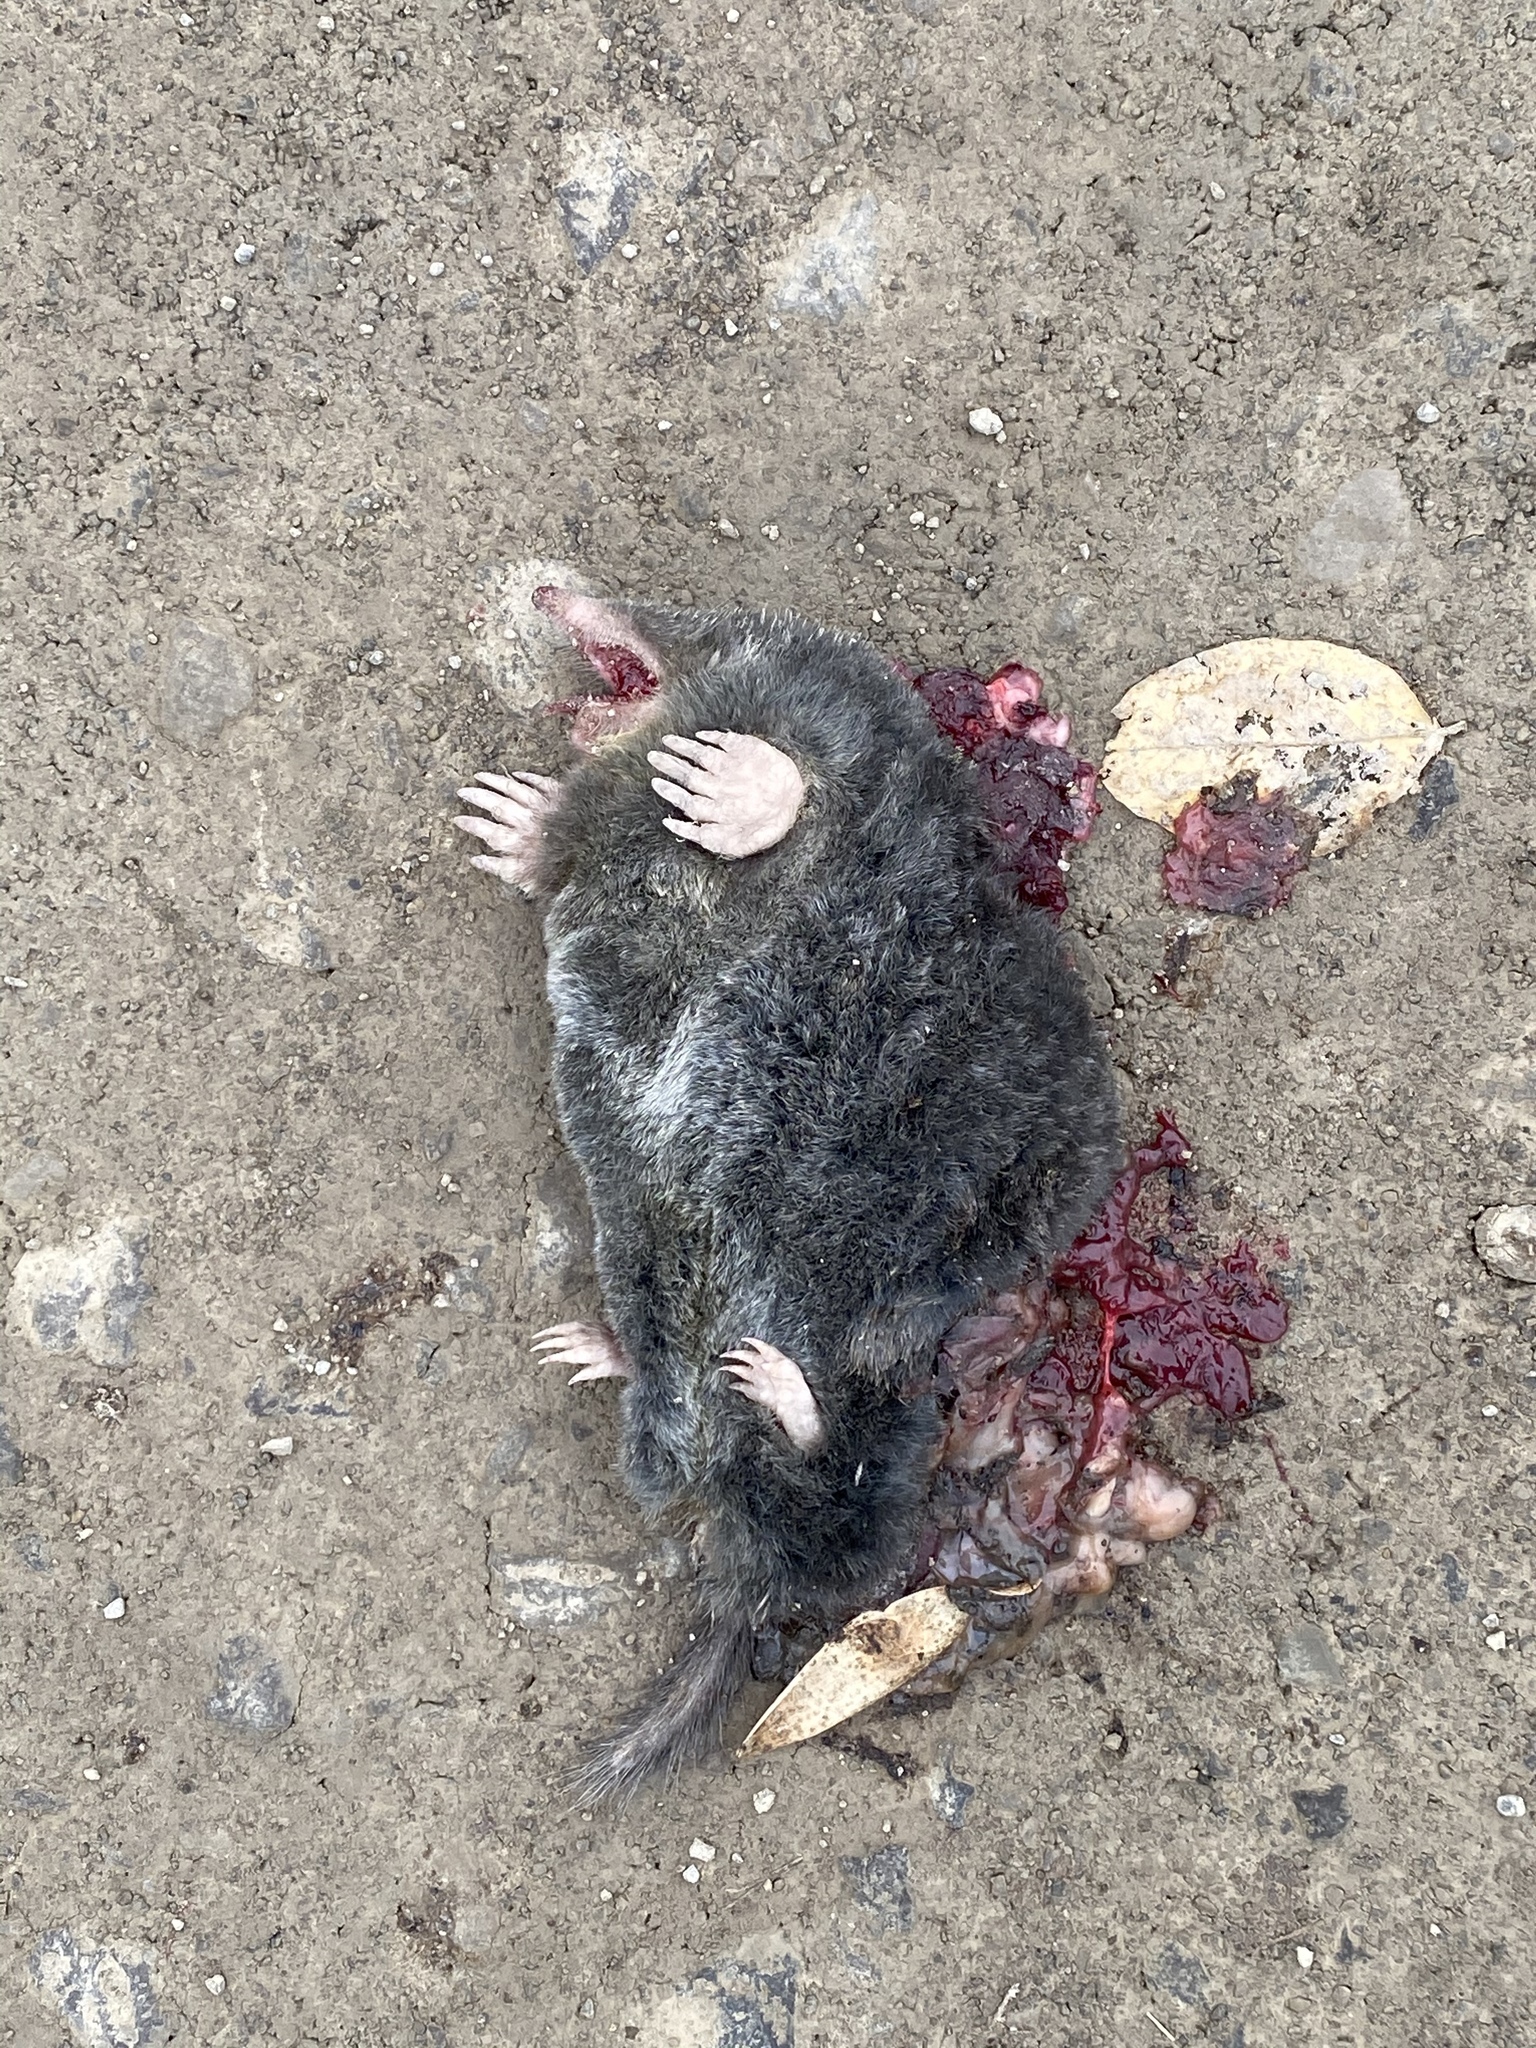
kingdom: Animalia
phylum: Chordata
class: Mammalia
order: Soricomorpha
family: Talpidae
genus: Parascalops
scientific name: Parascalops breweri
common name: Hairy-tailed mole
